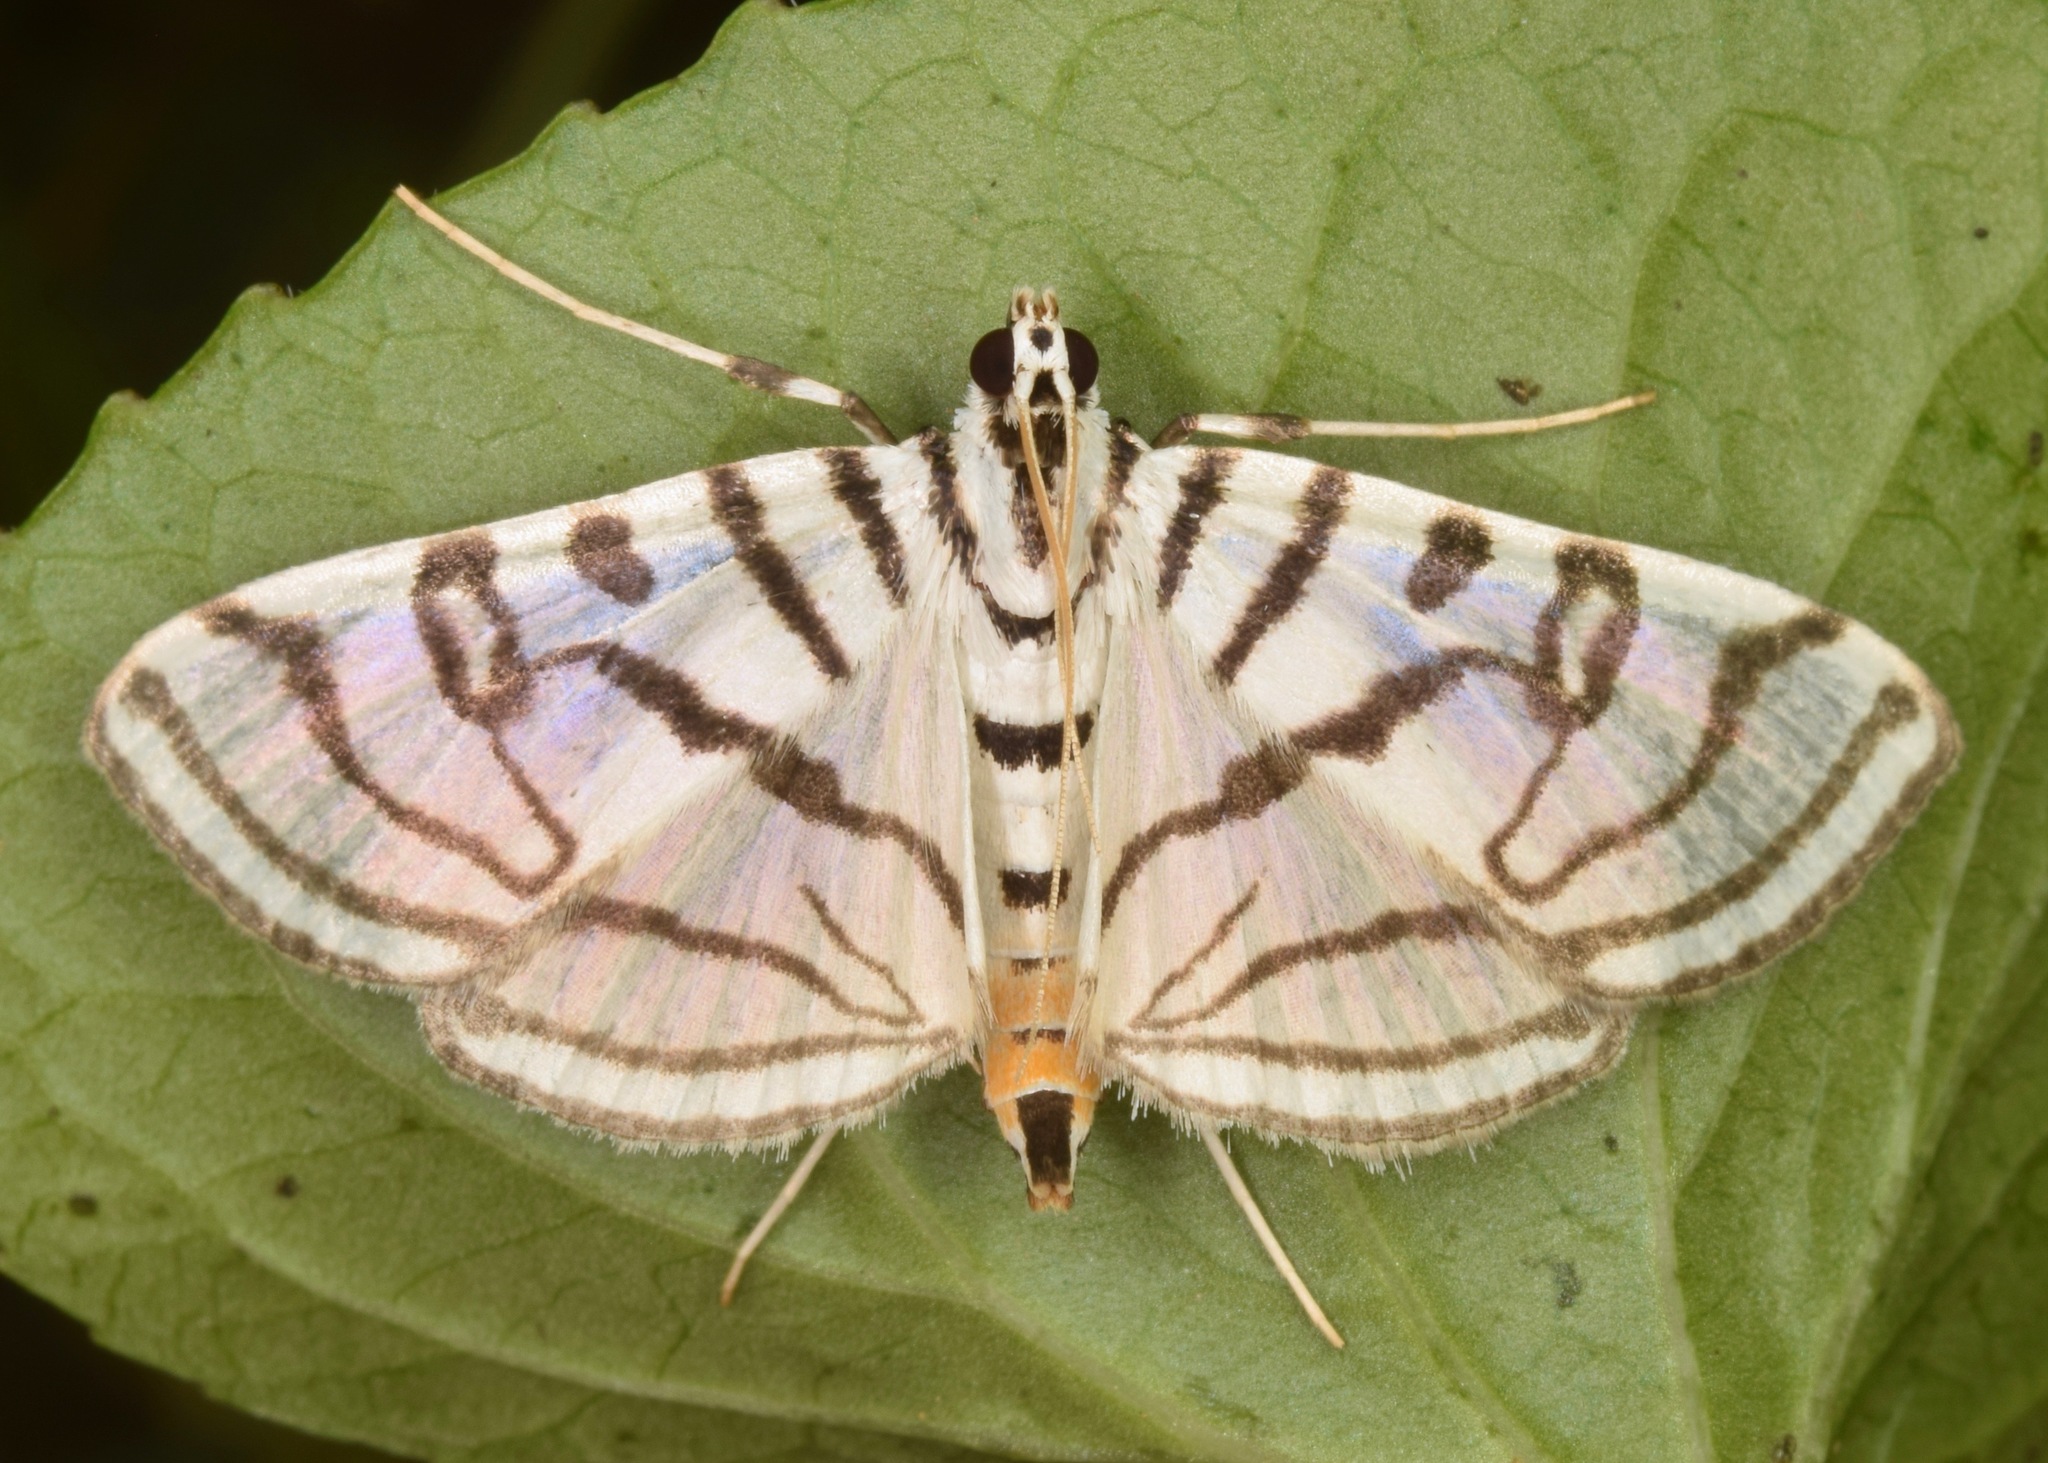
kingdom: Animalia
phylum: Arthropoda
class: Insecta
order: Lepidoptera
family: Crambidae
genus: Conchylodes
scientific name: Conchylodes ovulalis
